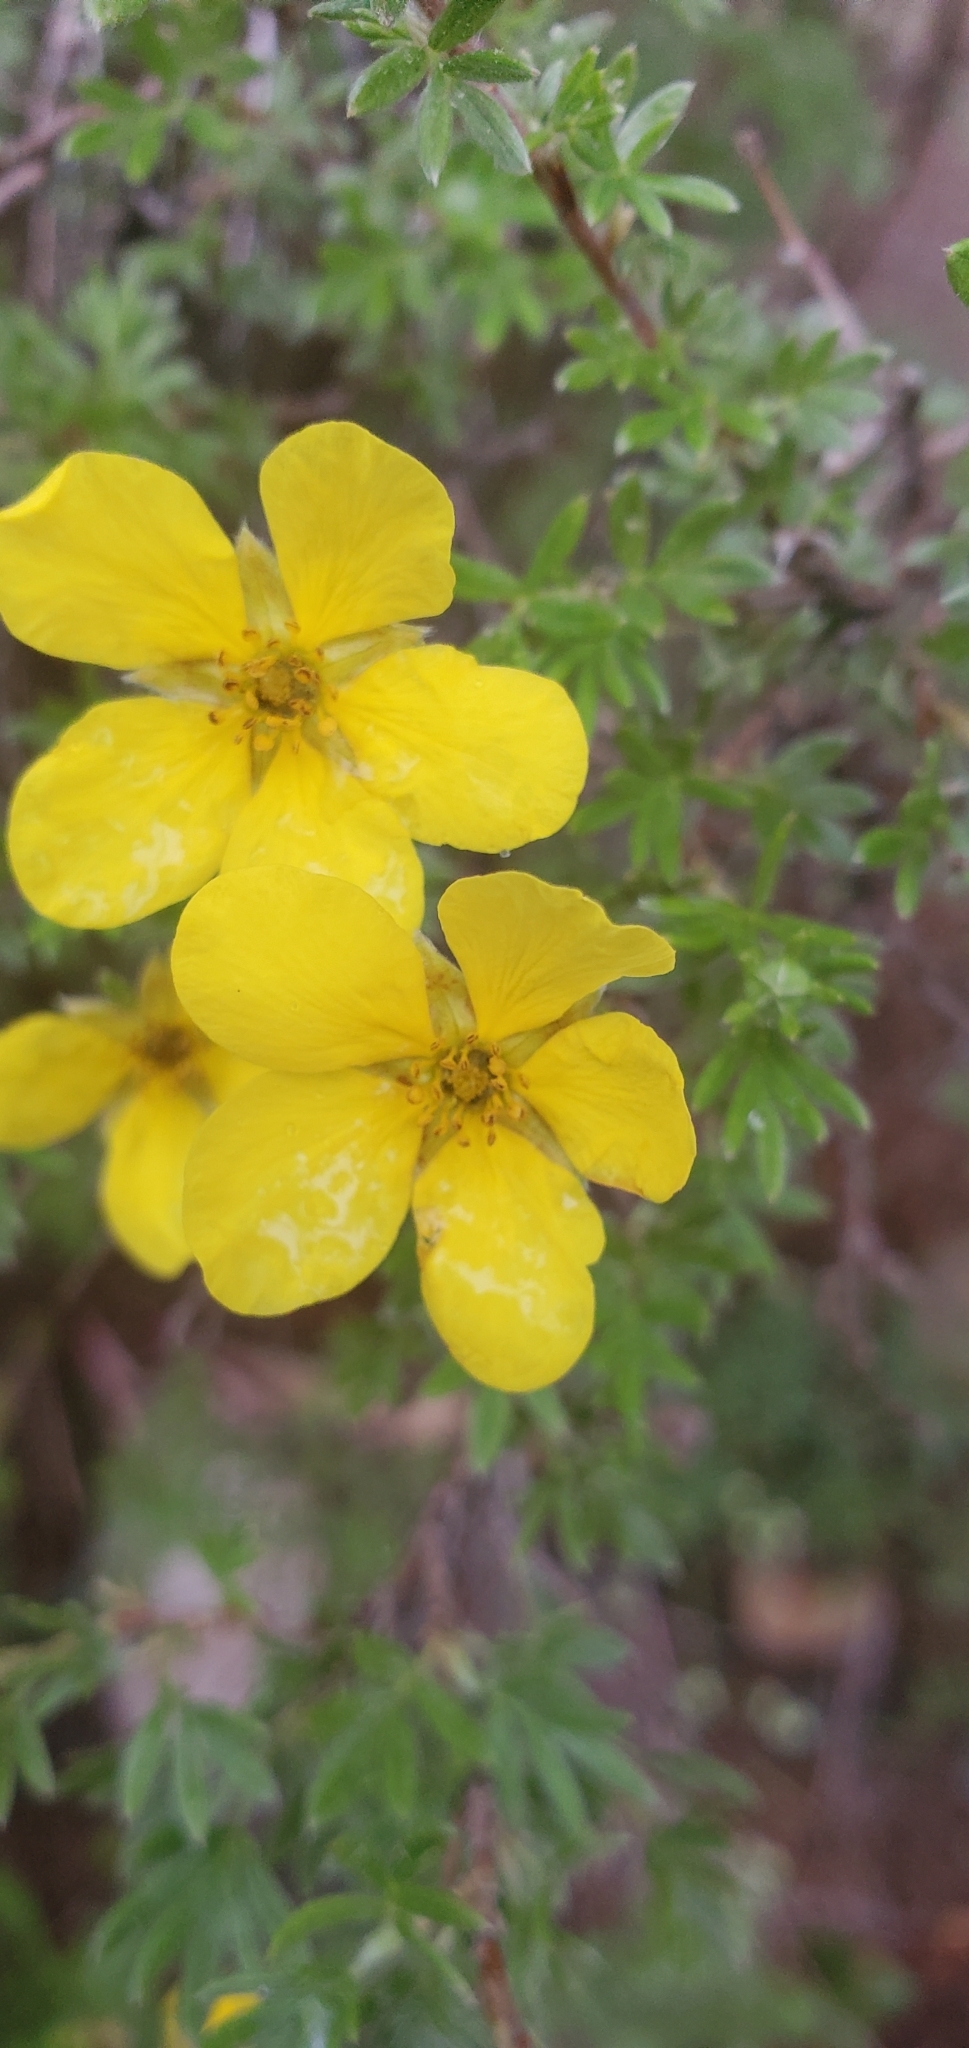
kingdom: Plantae
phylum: Tracheophyta
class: Magnoliopsida
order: Rosales
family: Rosaceae
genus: Dasiphora
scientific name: Dasiphora fruticosa
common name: Shrubby cinquefoil
